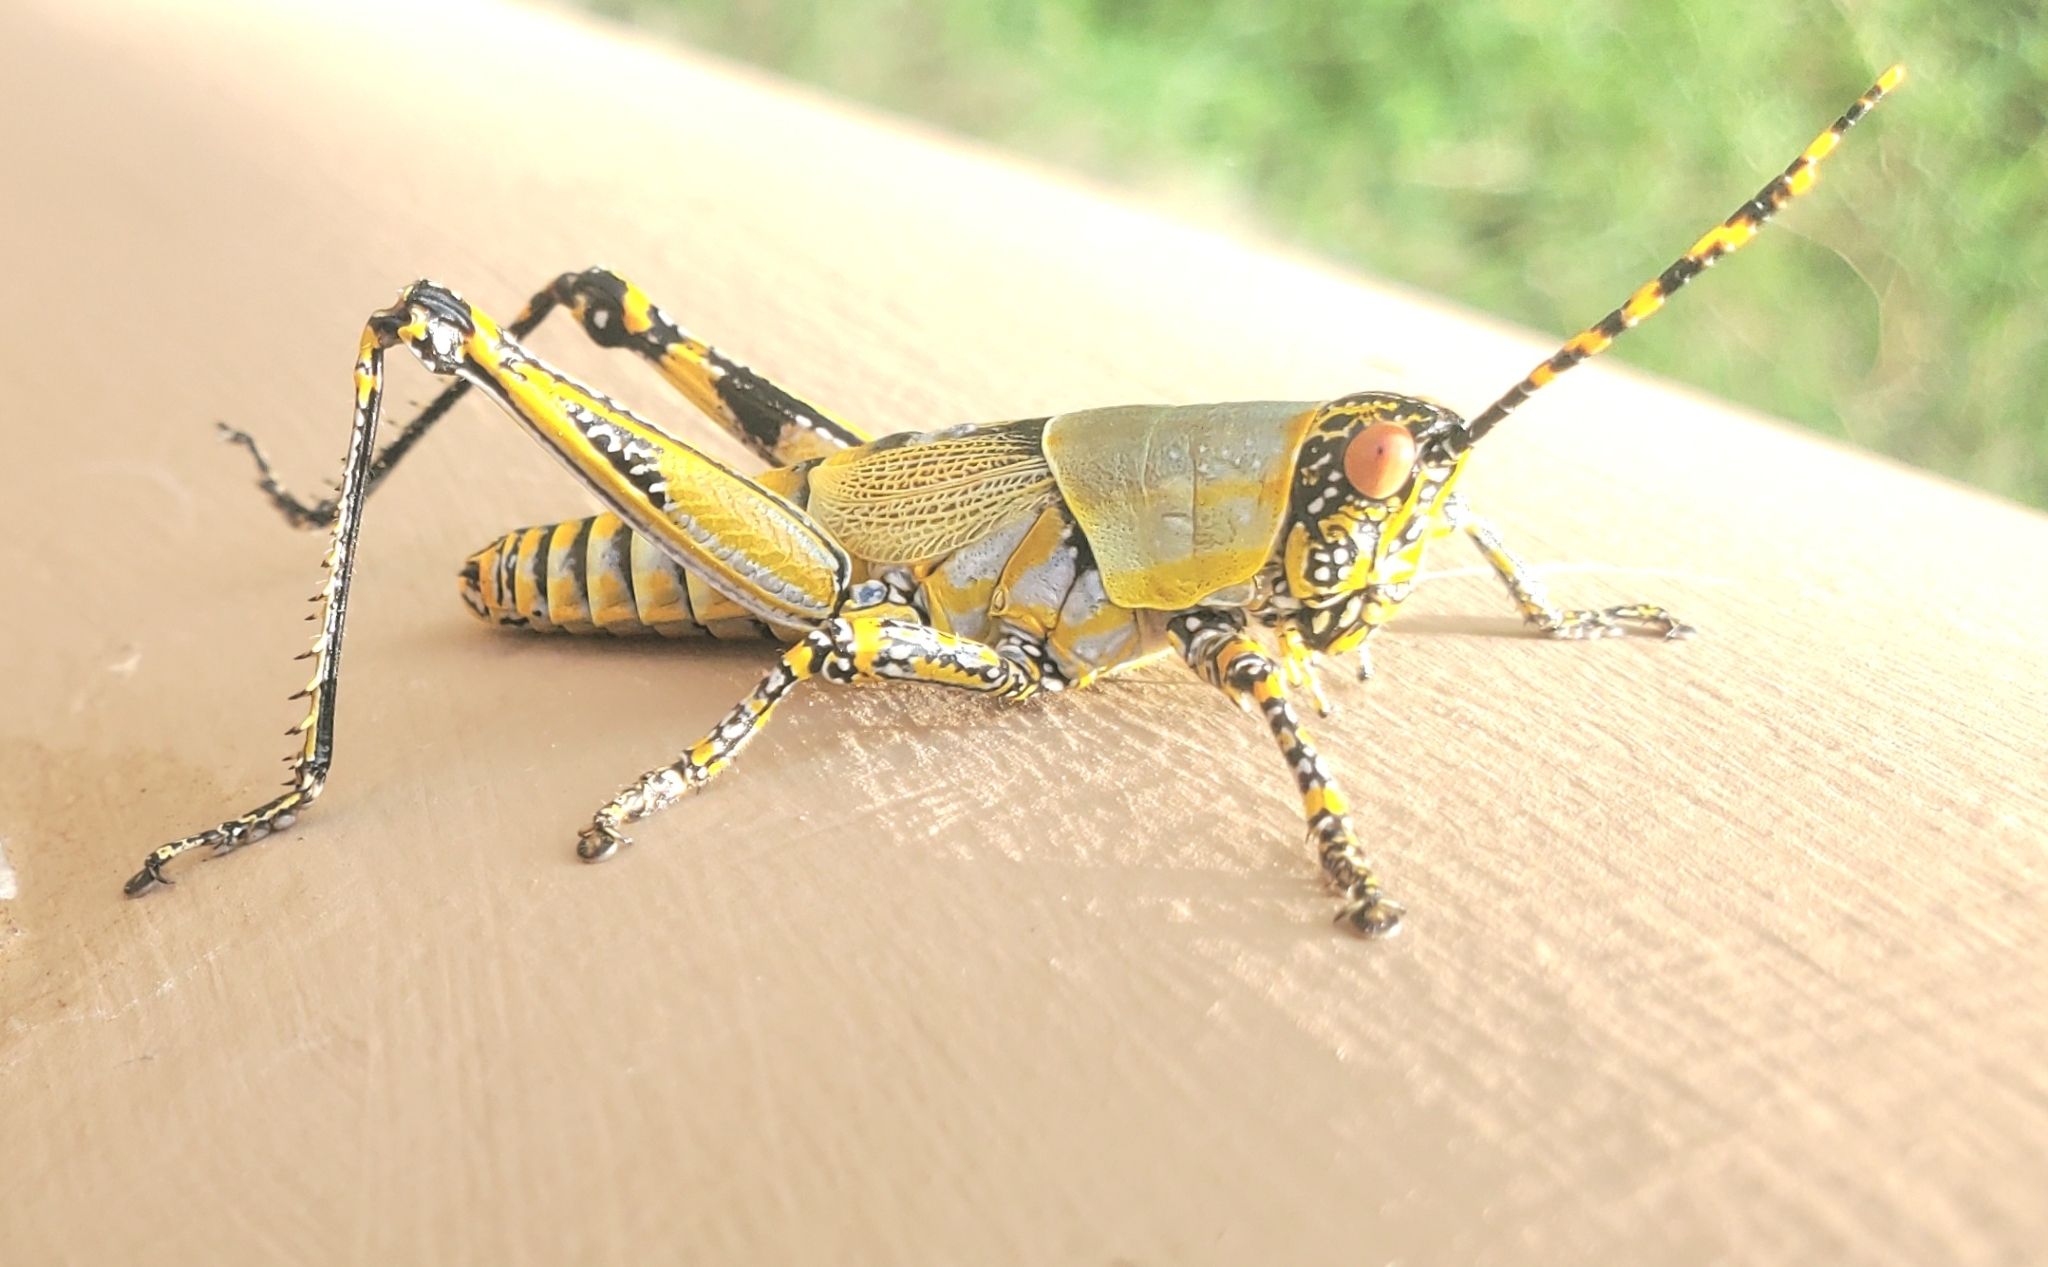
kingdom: Animalia
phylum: Arthropoda
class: Insecta
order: Orthoptera
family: Pyrgomorphidae
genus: Zonocerus
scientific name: Zonocerus elegans
